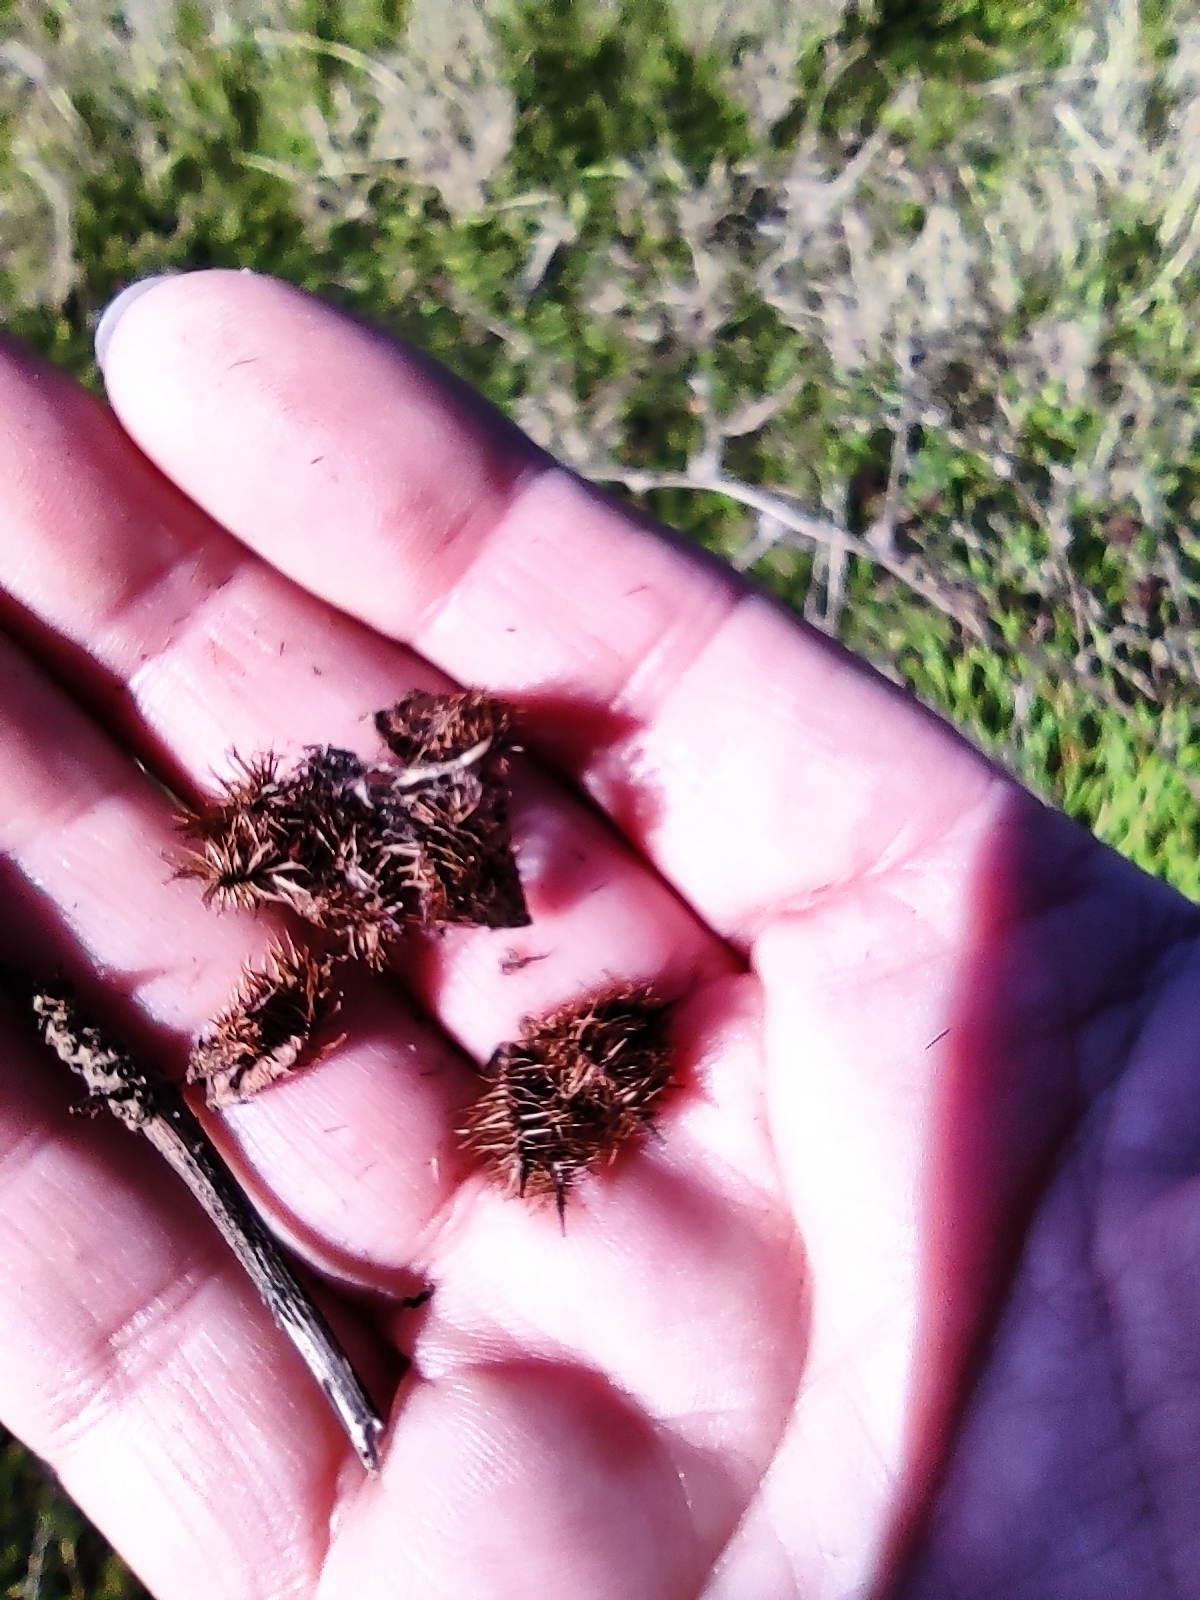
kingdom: Plantae
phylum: Tracheophyta
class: Magnoliopsida
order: Fabales
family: Fabaceae
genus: Glycyrrhiza
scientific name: Glycyrrhiza echinata
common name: German liquorice
